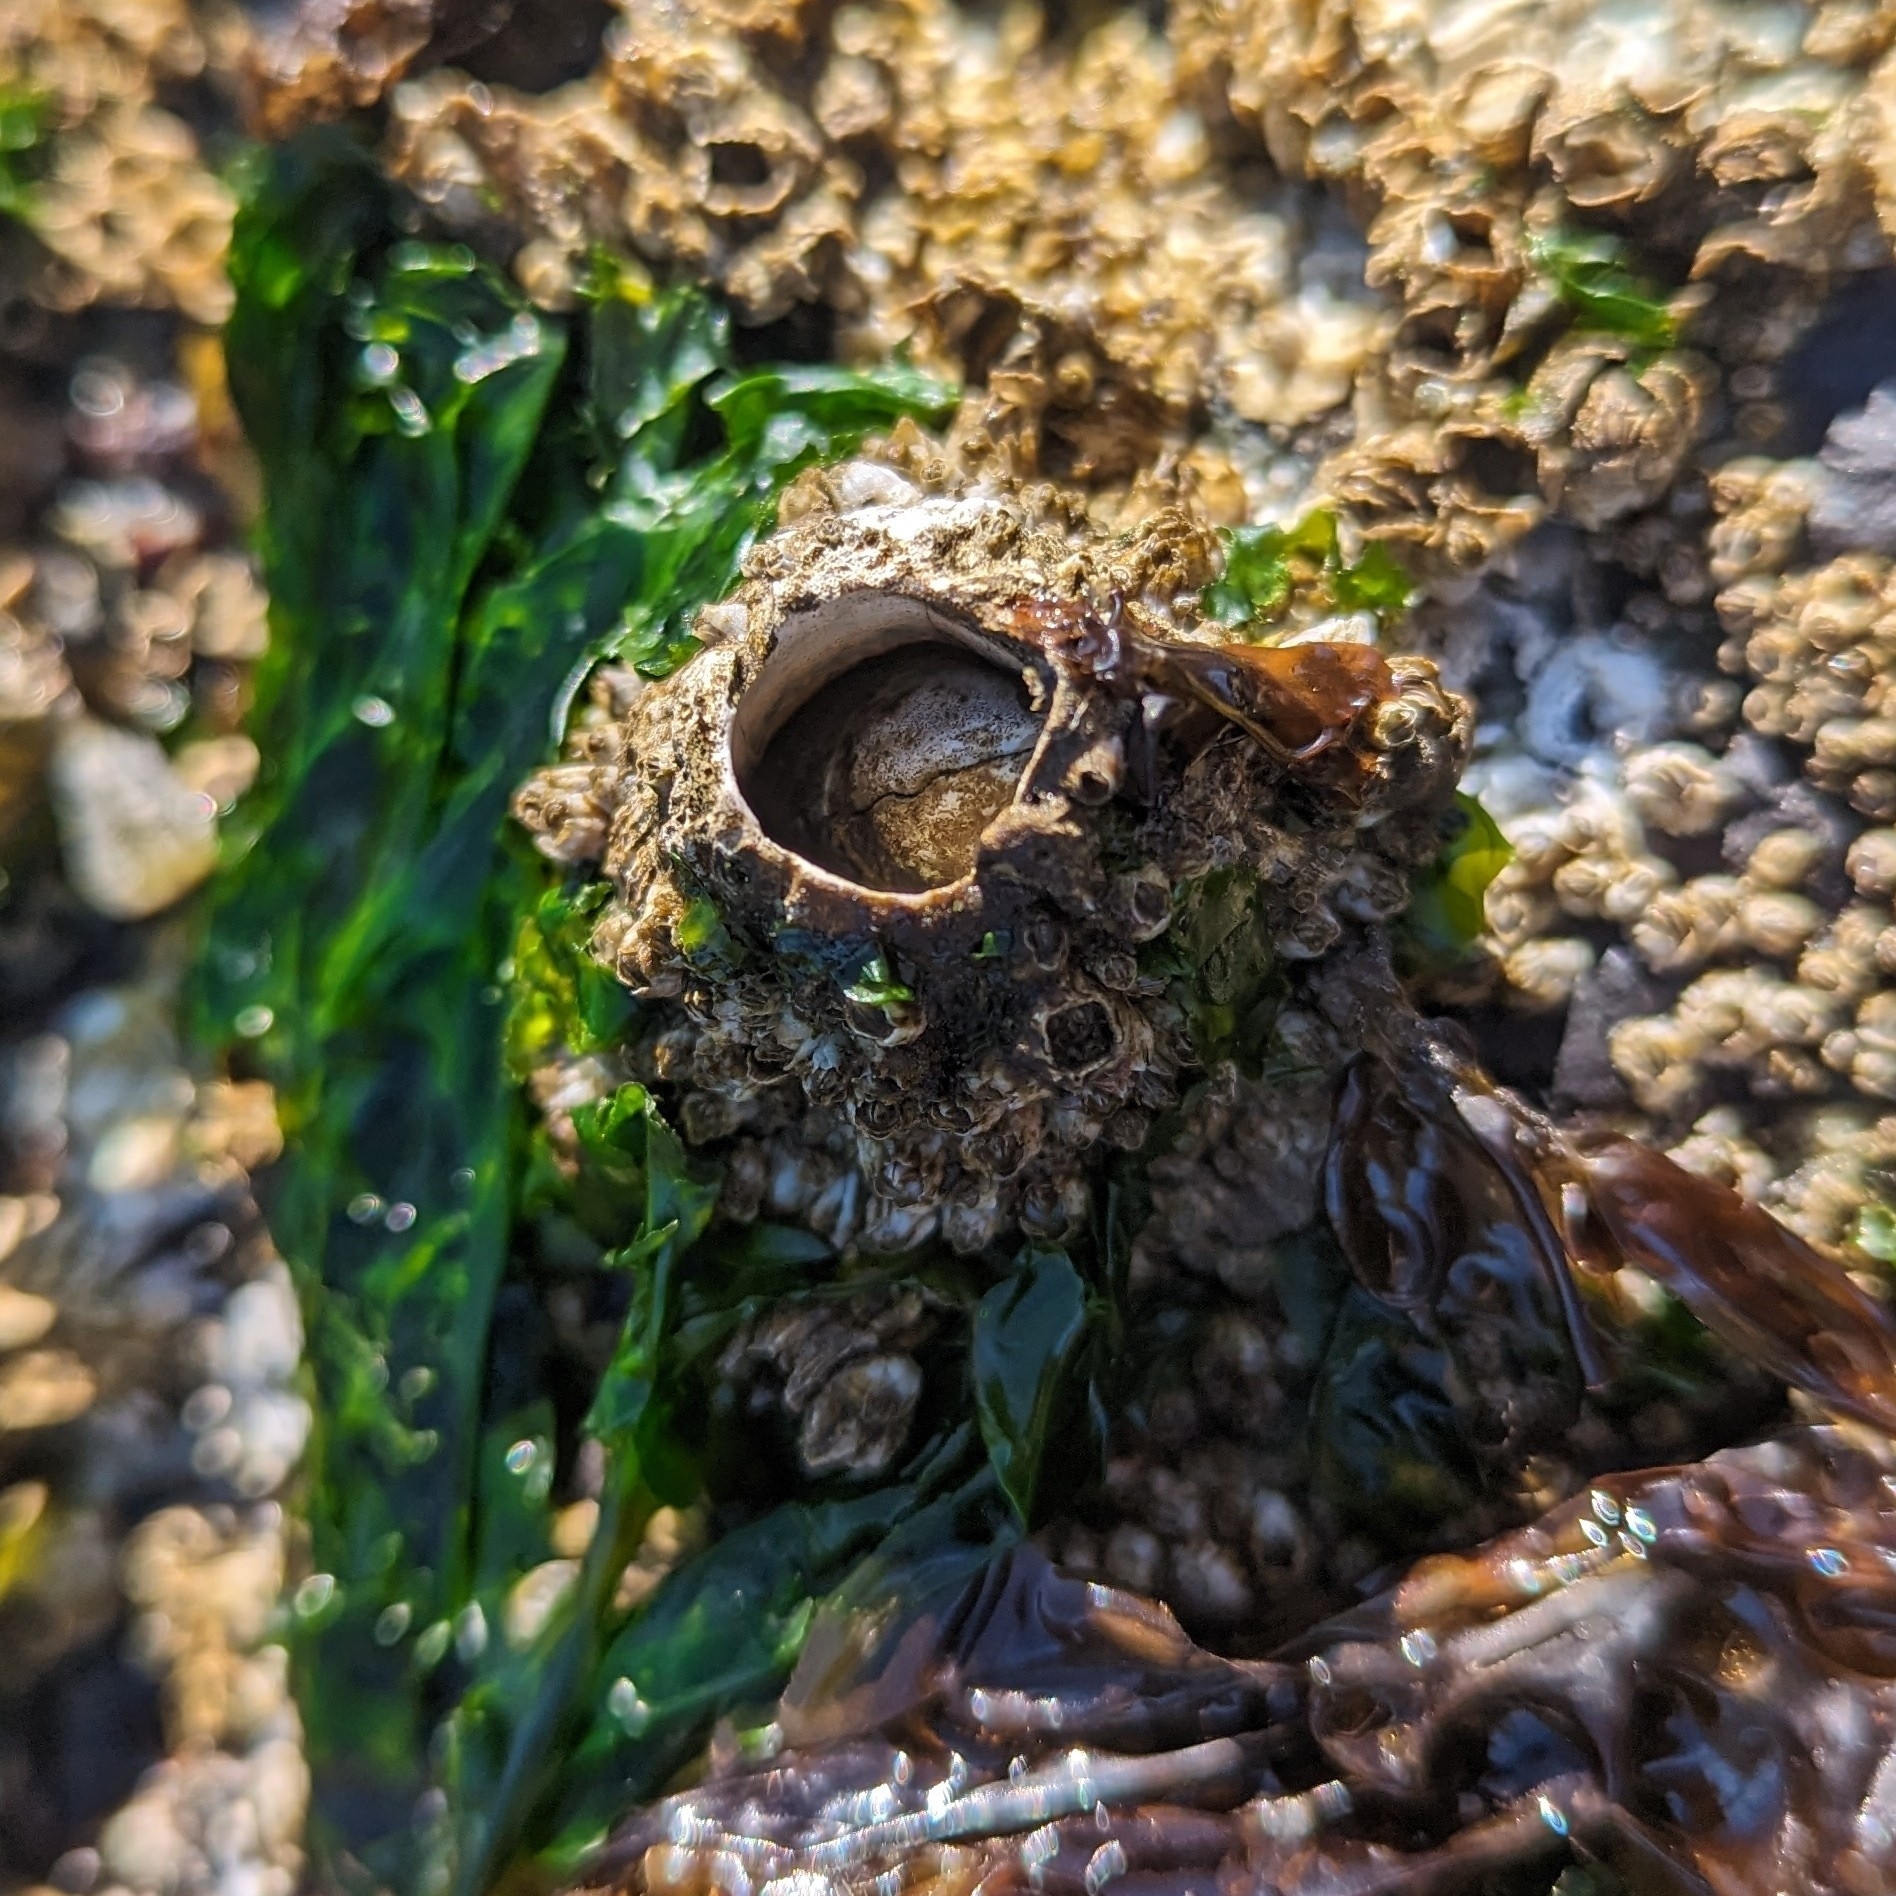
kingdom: Animalia
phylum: Arthropoda
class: Maxillopoda
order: Sessilia
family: Archaeobalanidae
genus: Semibalanus
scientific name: Semibalanus cariosus
